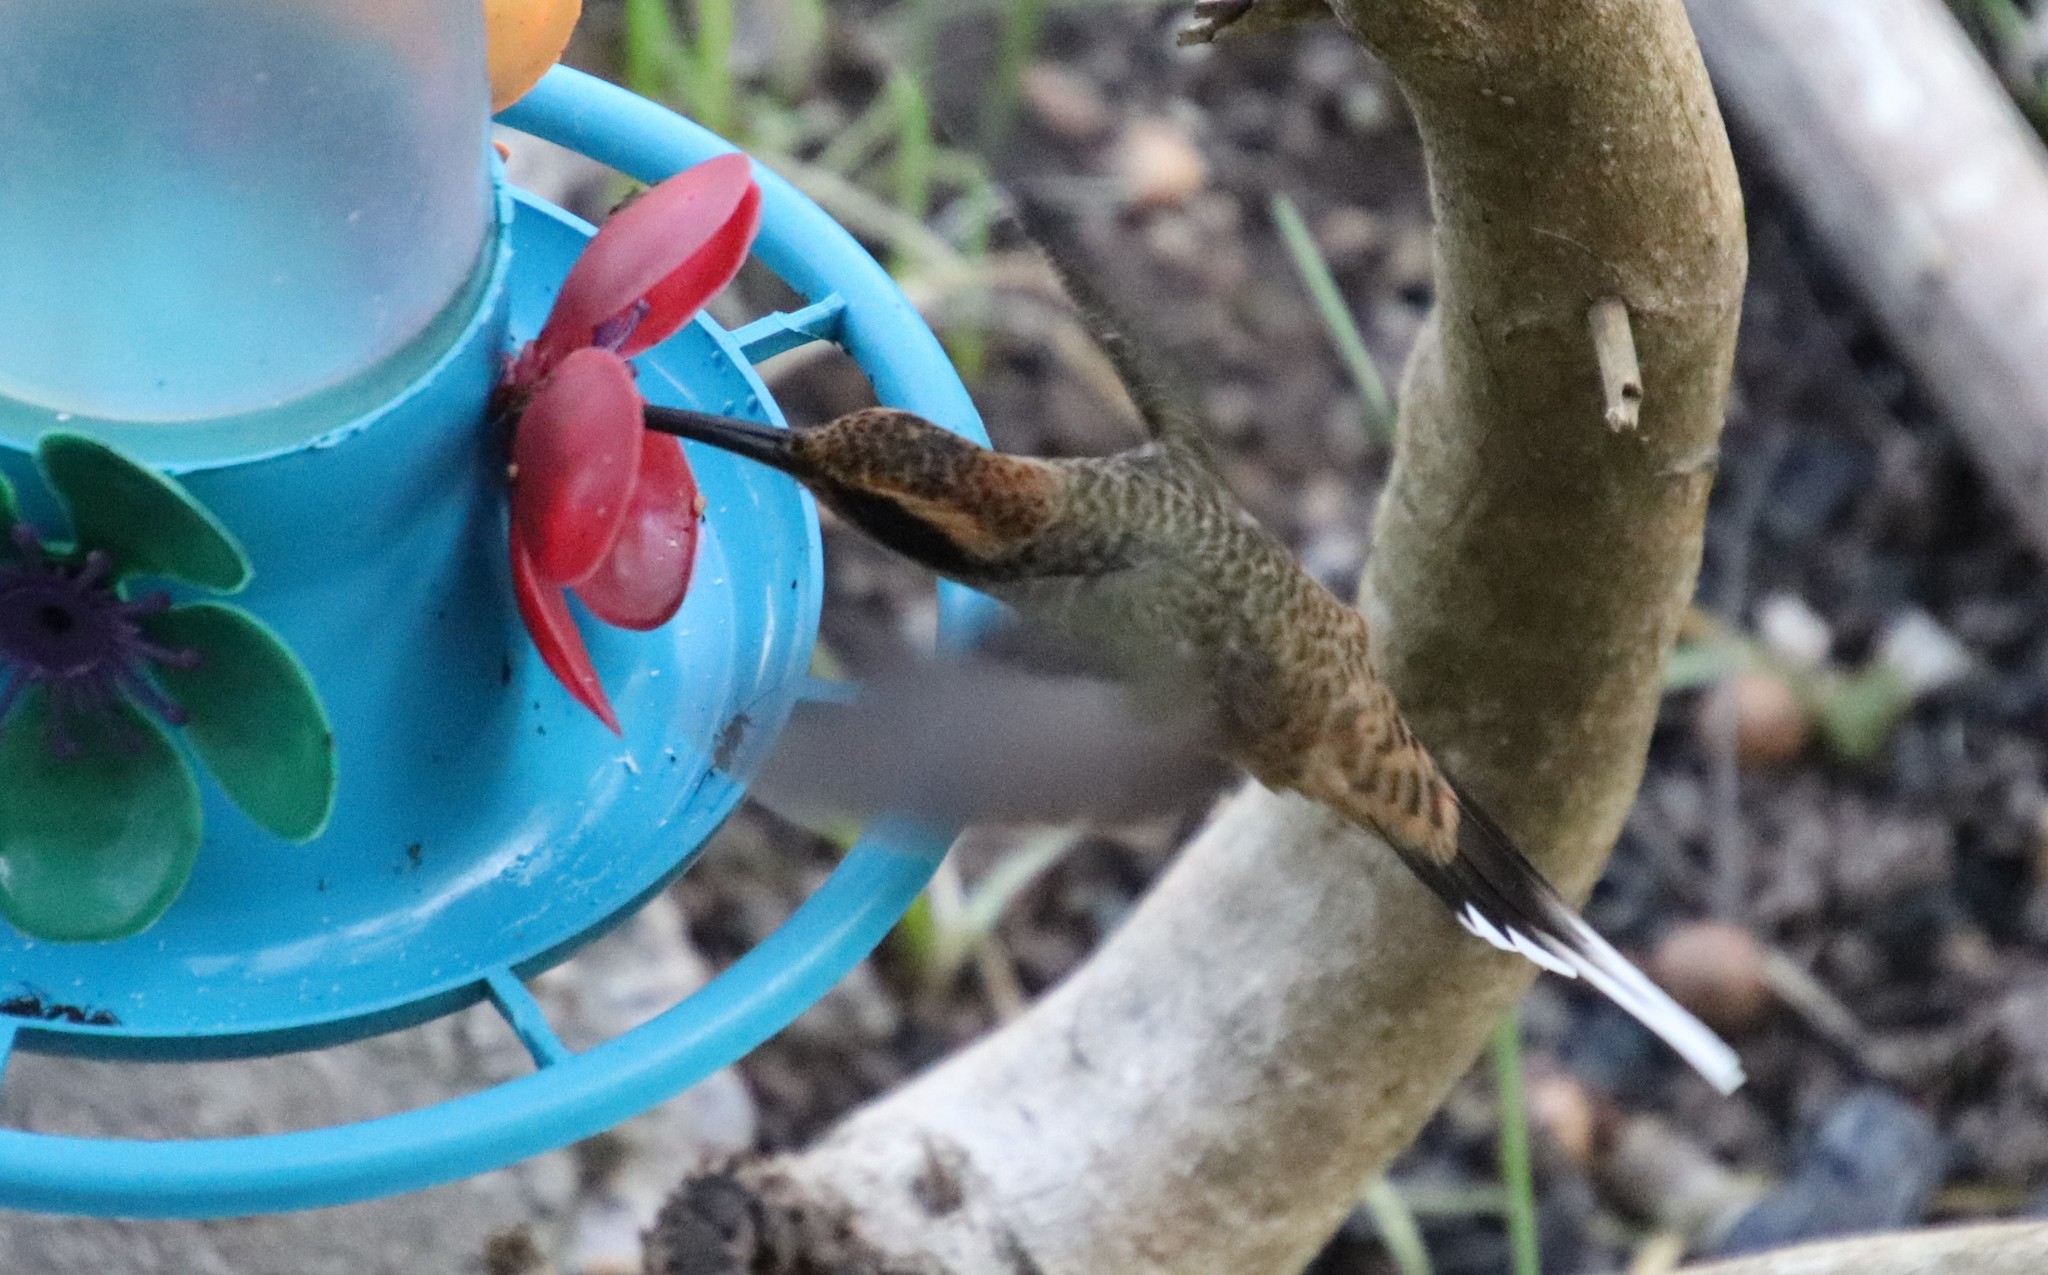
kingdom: Animalia
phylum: Chordata
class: Aves
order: Apodiformes
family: Trochilidae
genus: Phaethornis
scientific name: Phaethornis eurynome
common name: Scale-throated hermit
